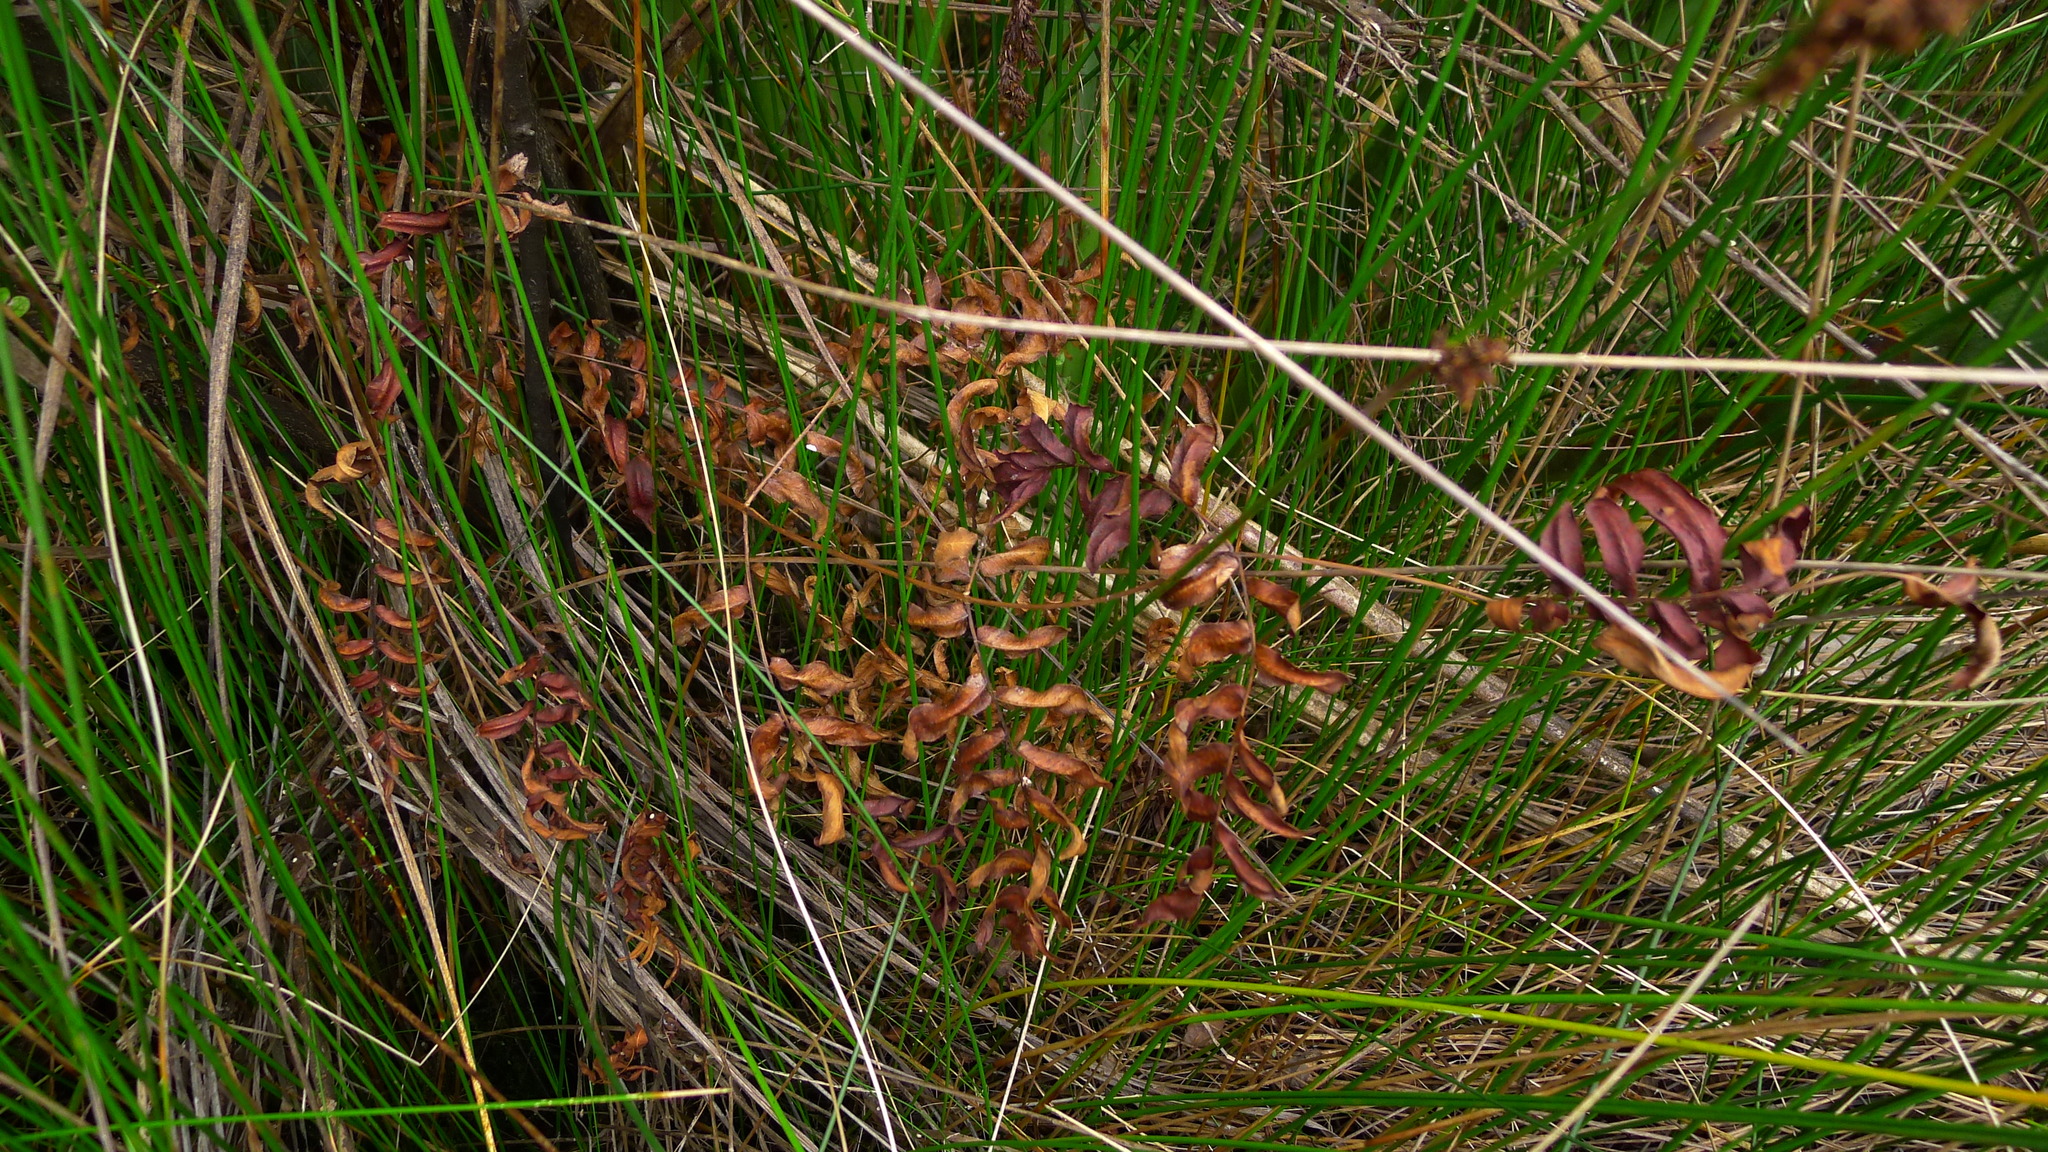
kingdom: Plantae
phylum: Tracheophyta
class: Polypodiopsida
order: Osmundales
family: Osmundaceae
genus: Osmunda
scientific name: Osmunda regalis
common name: Royal fern
